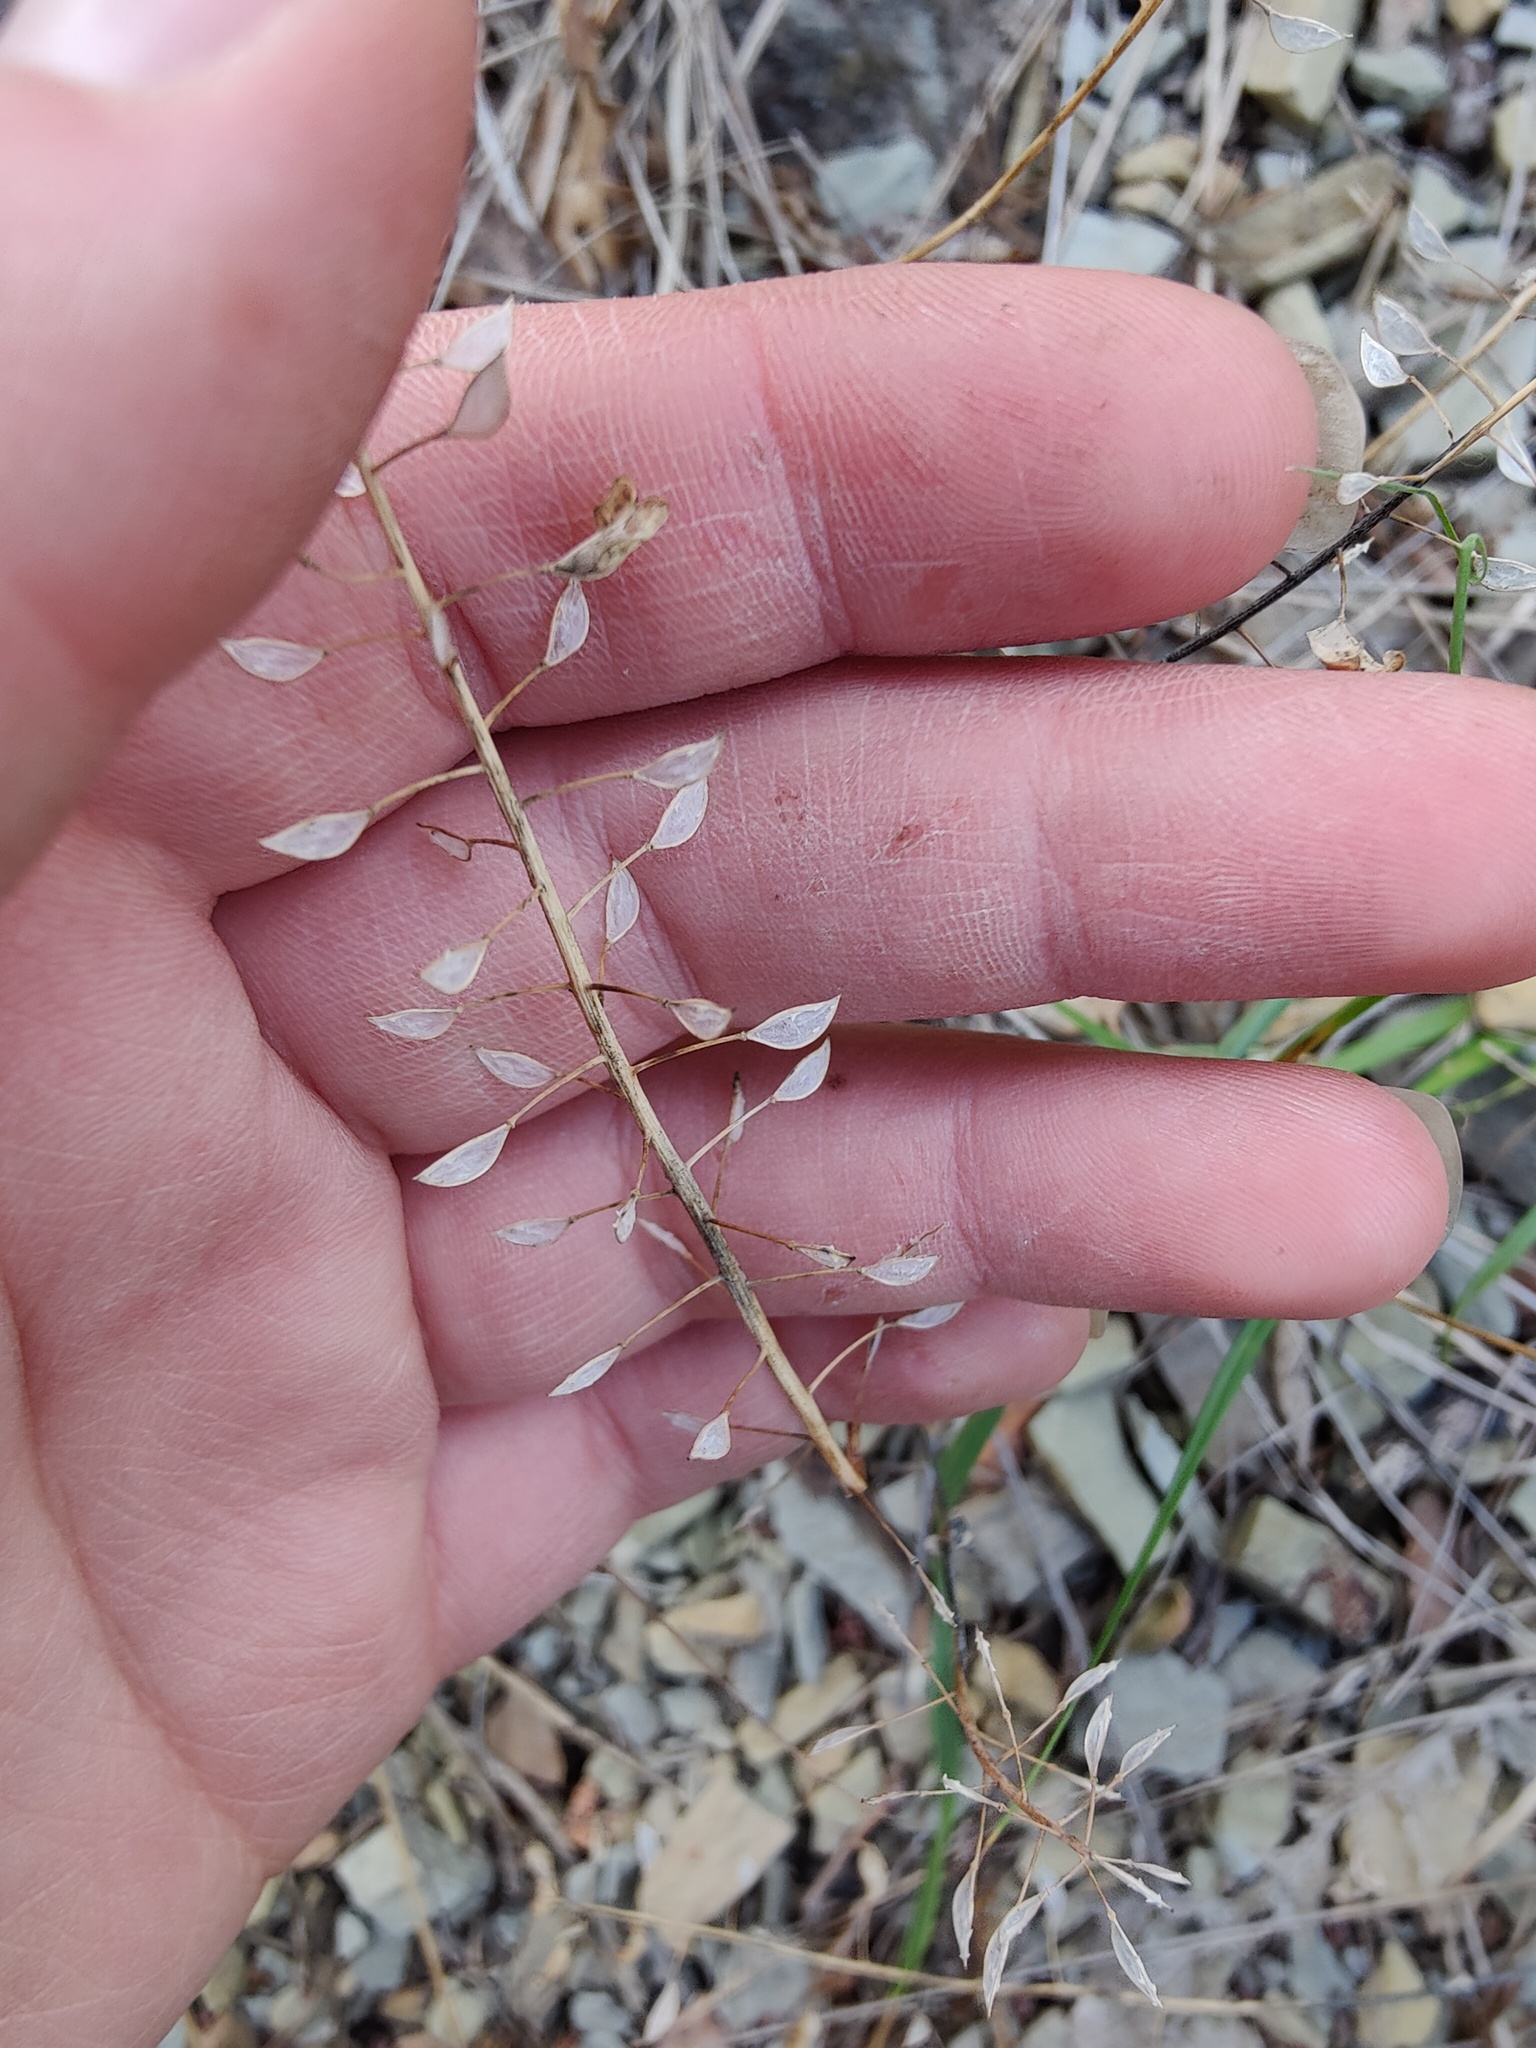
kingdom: Plantae
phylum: Tracheophyta
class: Magnoliopsida
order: Brassicales
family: Brassicaceae
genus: Noccaea
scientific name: Noccaea perfoliata
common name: Perfoliate pennycress
